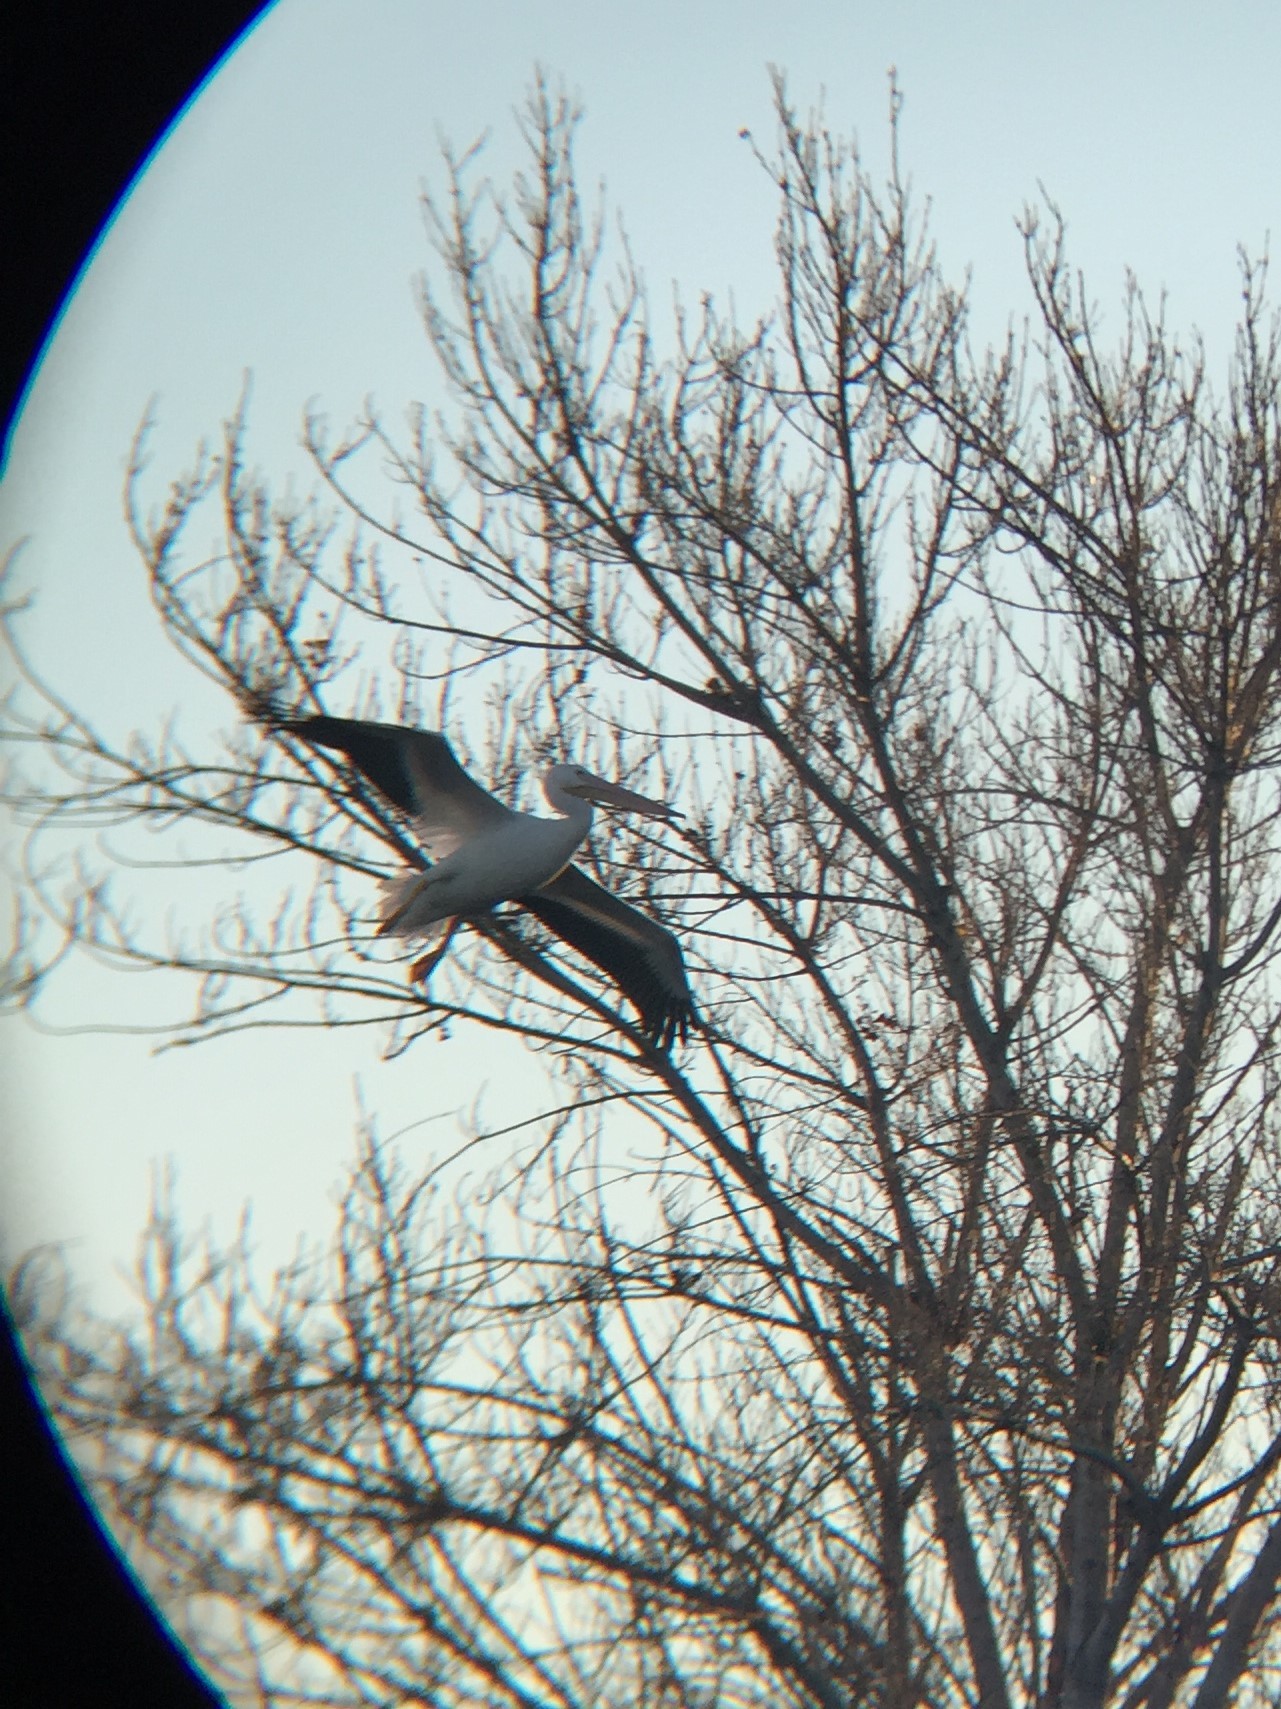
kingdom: Animalia
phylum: Chordata
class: Aves
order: Pelecaniformes
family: Pelecanidae
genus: Pelecanus
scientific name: Pelecanus erythrorhynchos
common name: American white pelican
